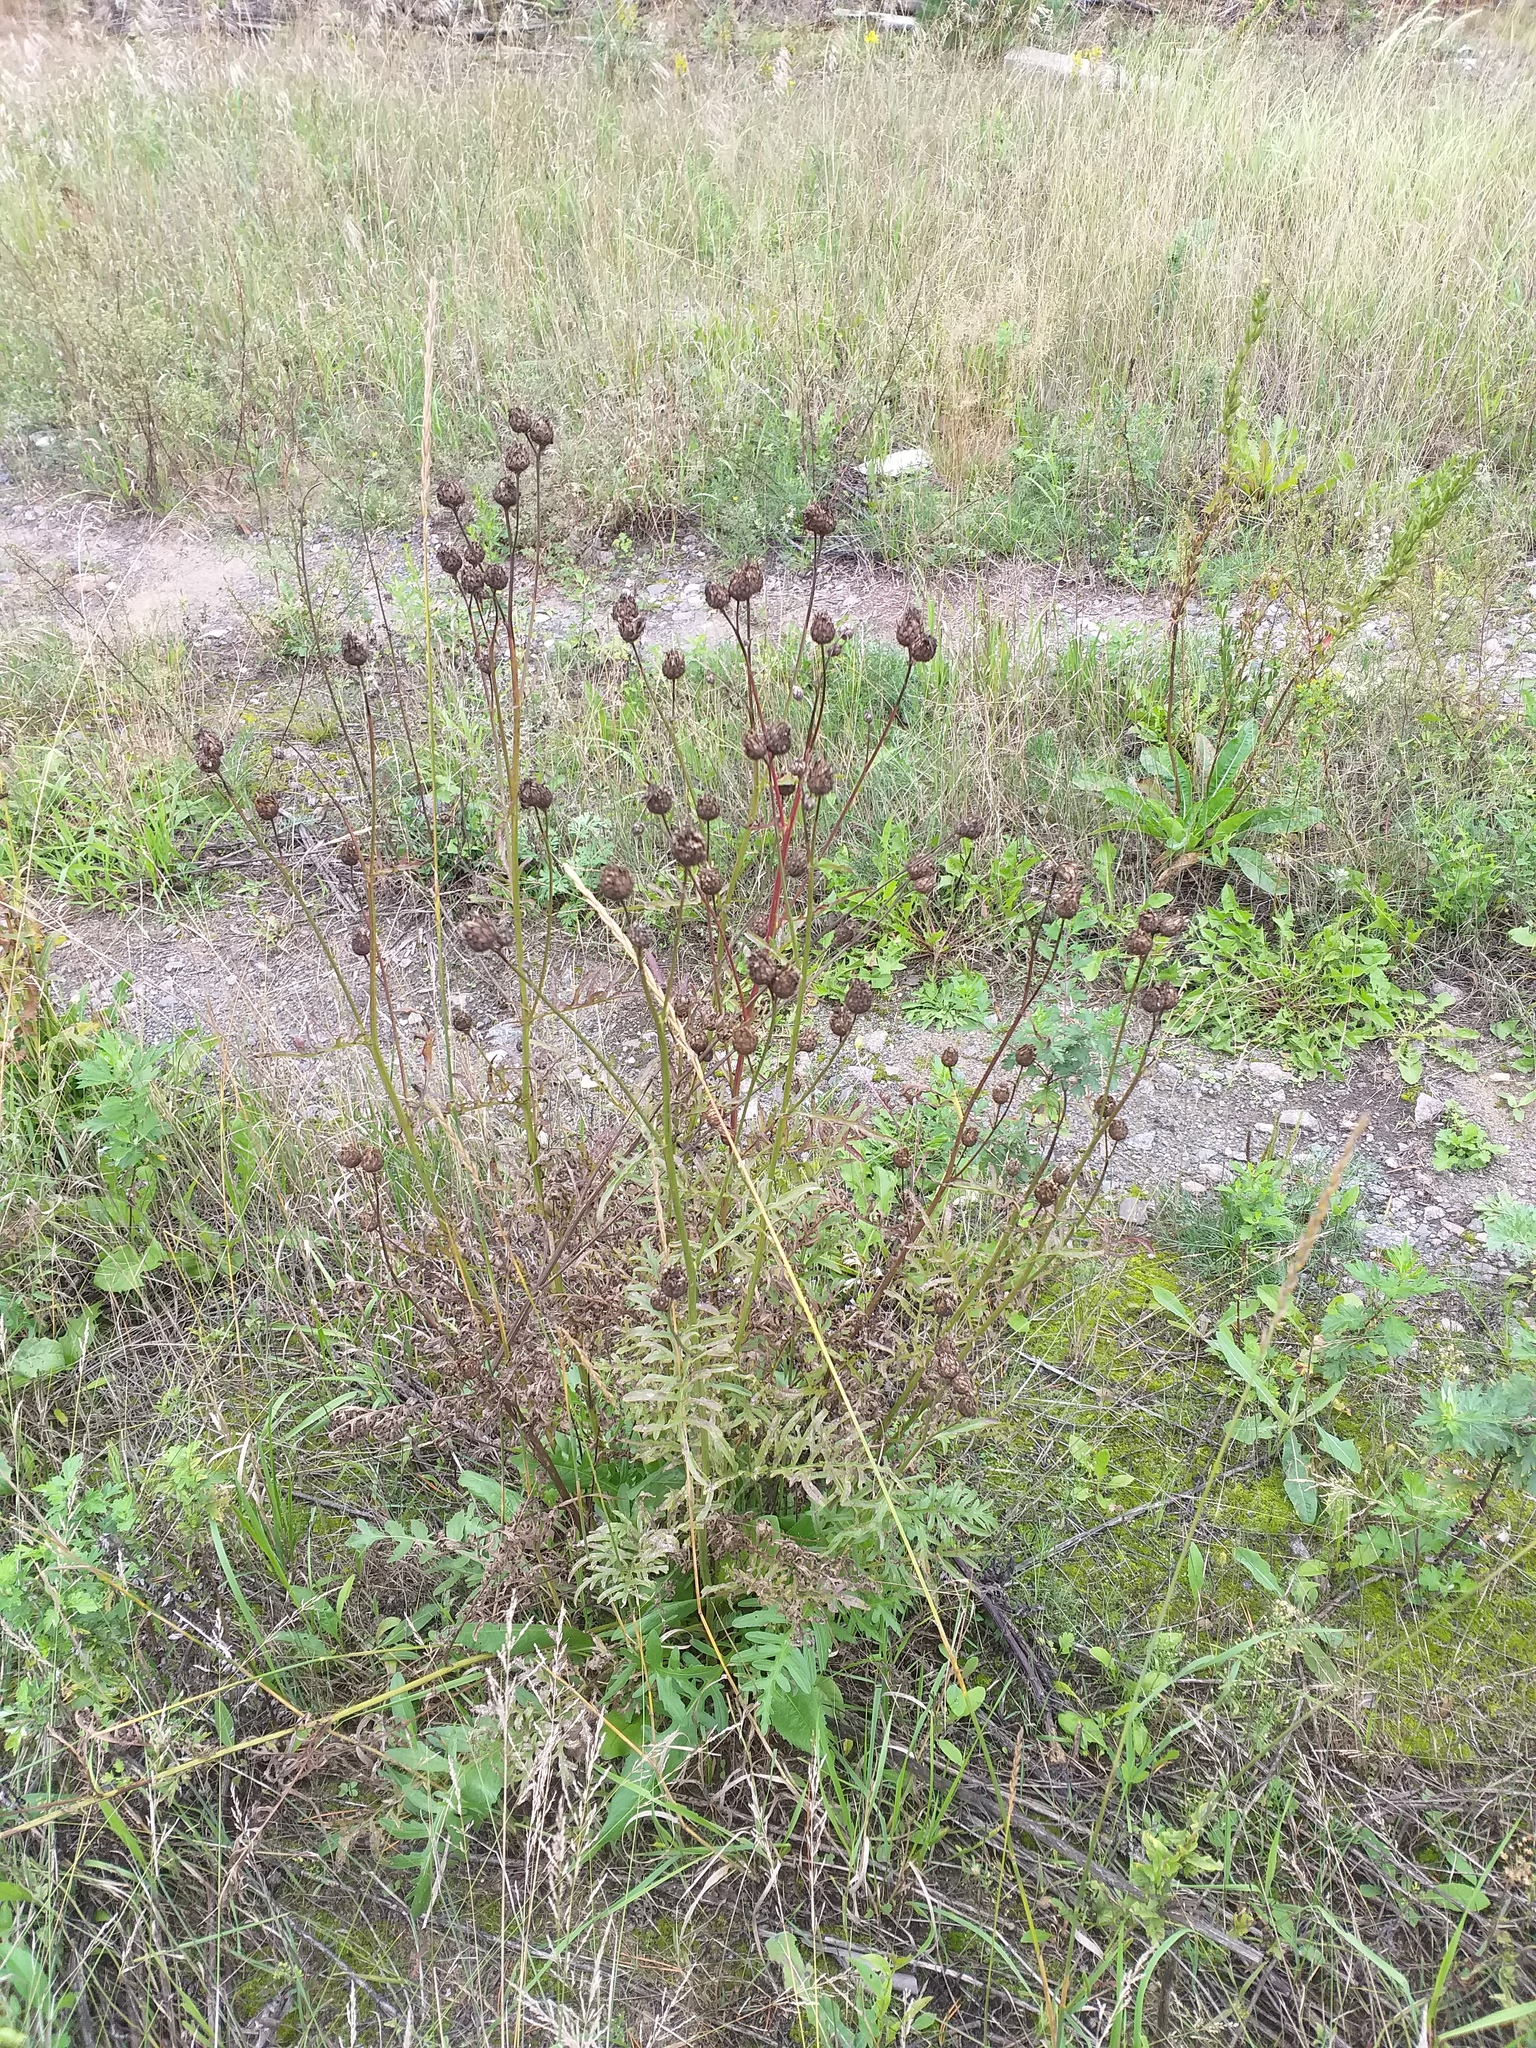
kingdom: Plantae
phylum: Tracheophyta
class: Magnoliopsida
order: Asterales
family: Asteraceae
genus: Centaurea
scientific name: Centaurea scabiosa
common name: Greater knapweed
